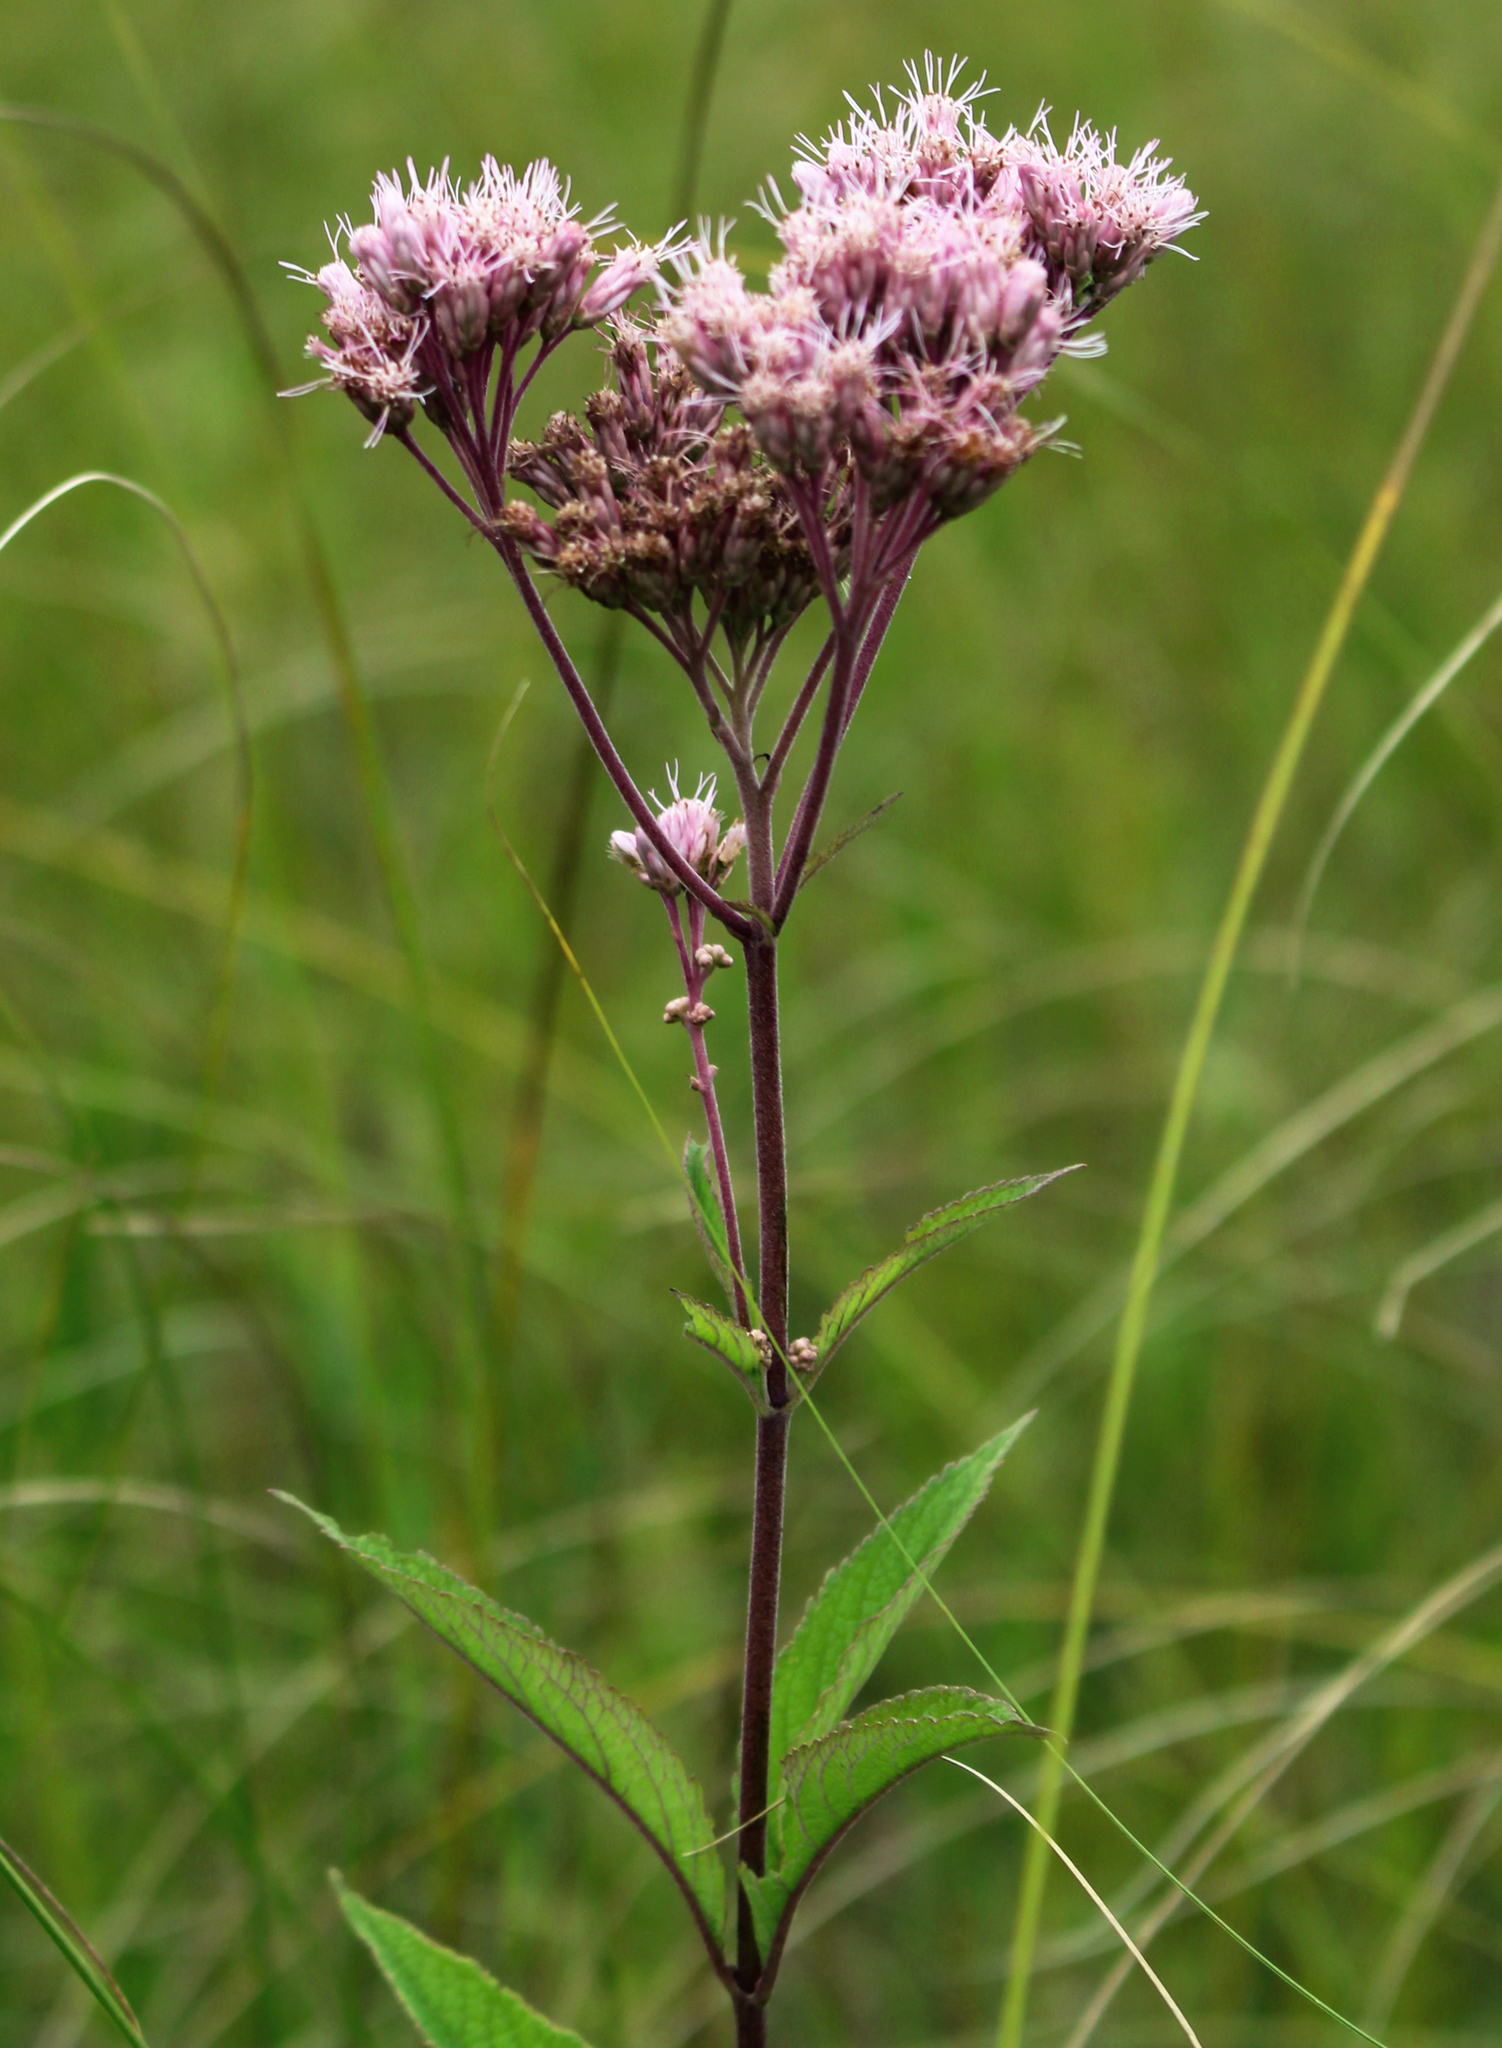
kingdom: Plantae
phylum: Tracheophyta
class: Magnoliopsida
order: Asterales
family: Asteraceae
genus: Eutrochium
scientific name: Eutrochium maculatum
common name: Spotted joe pye weed
